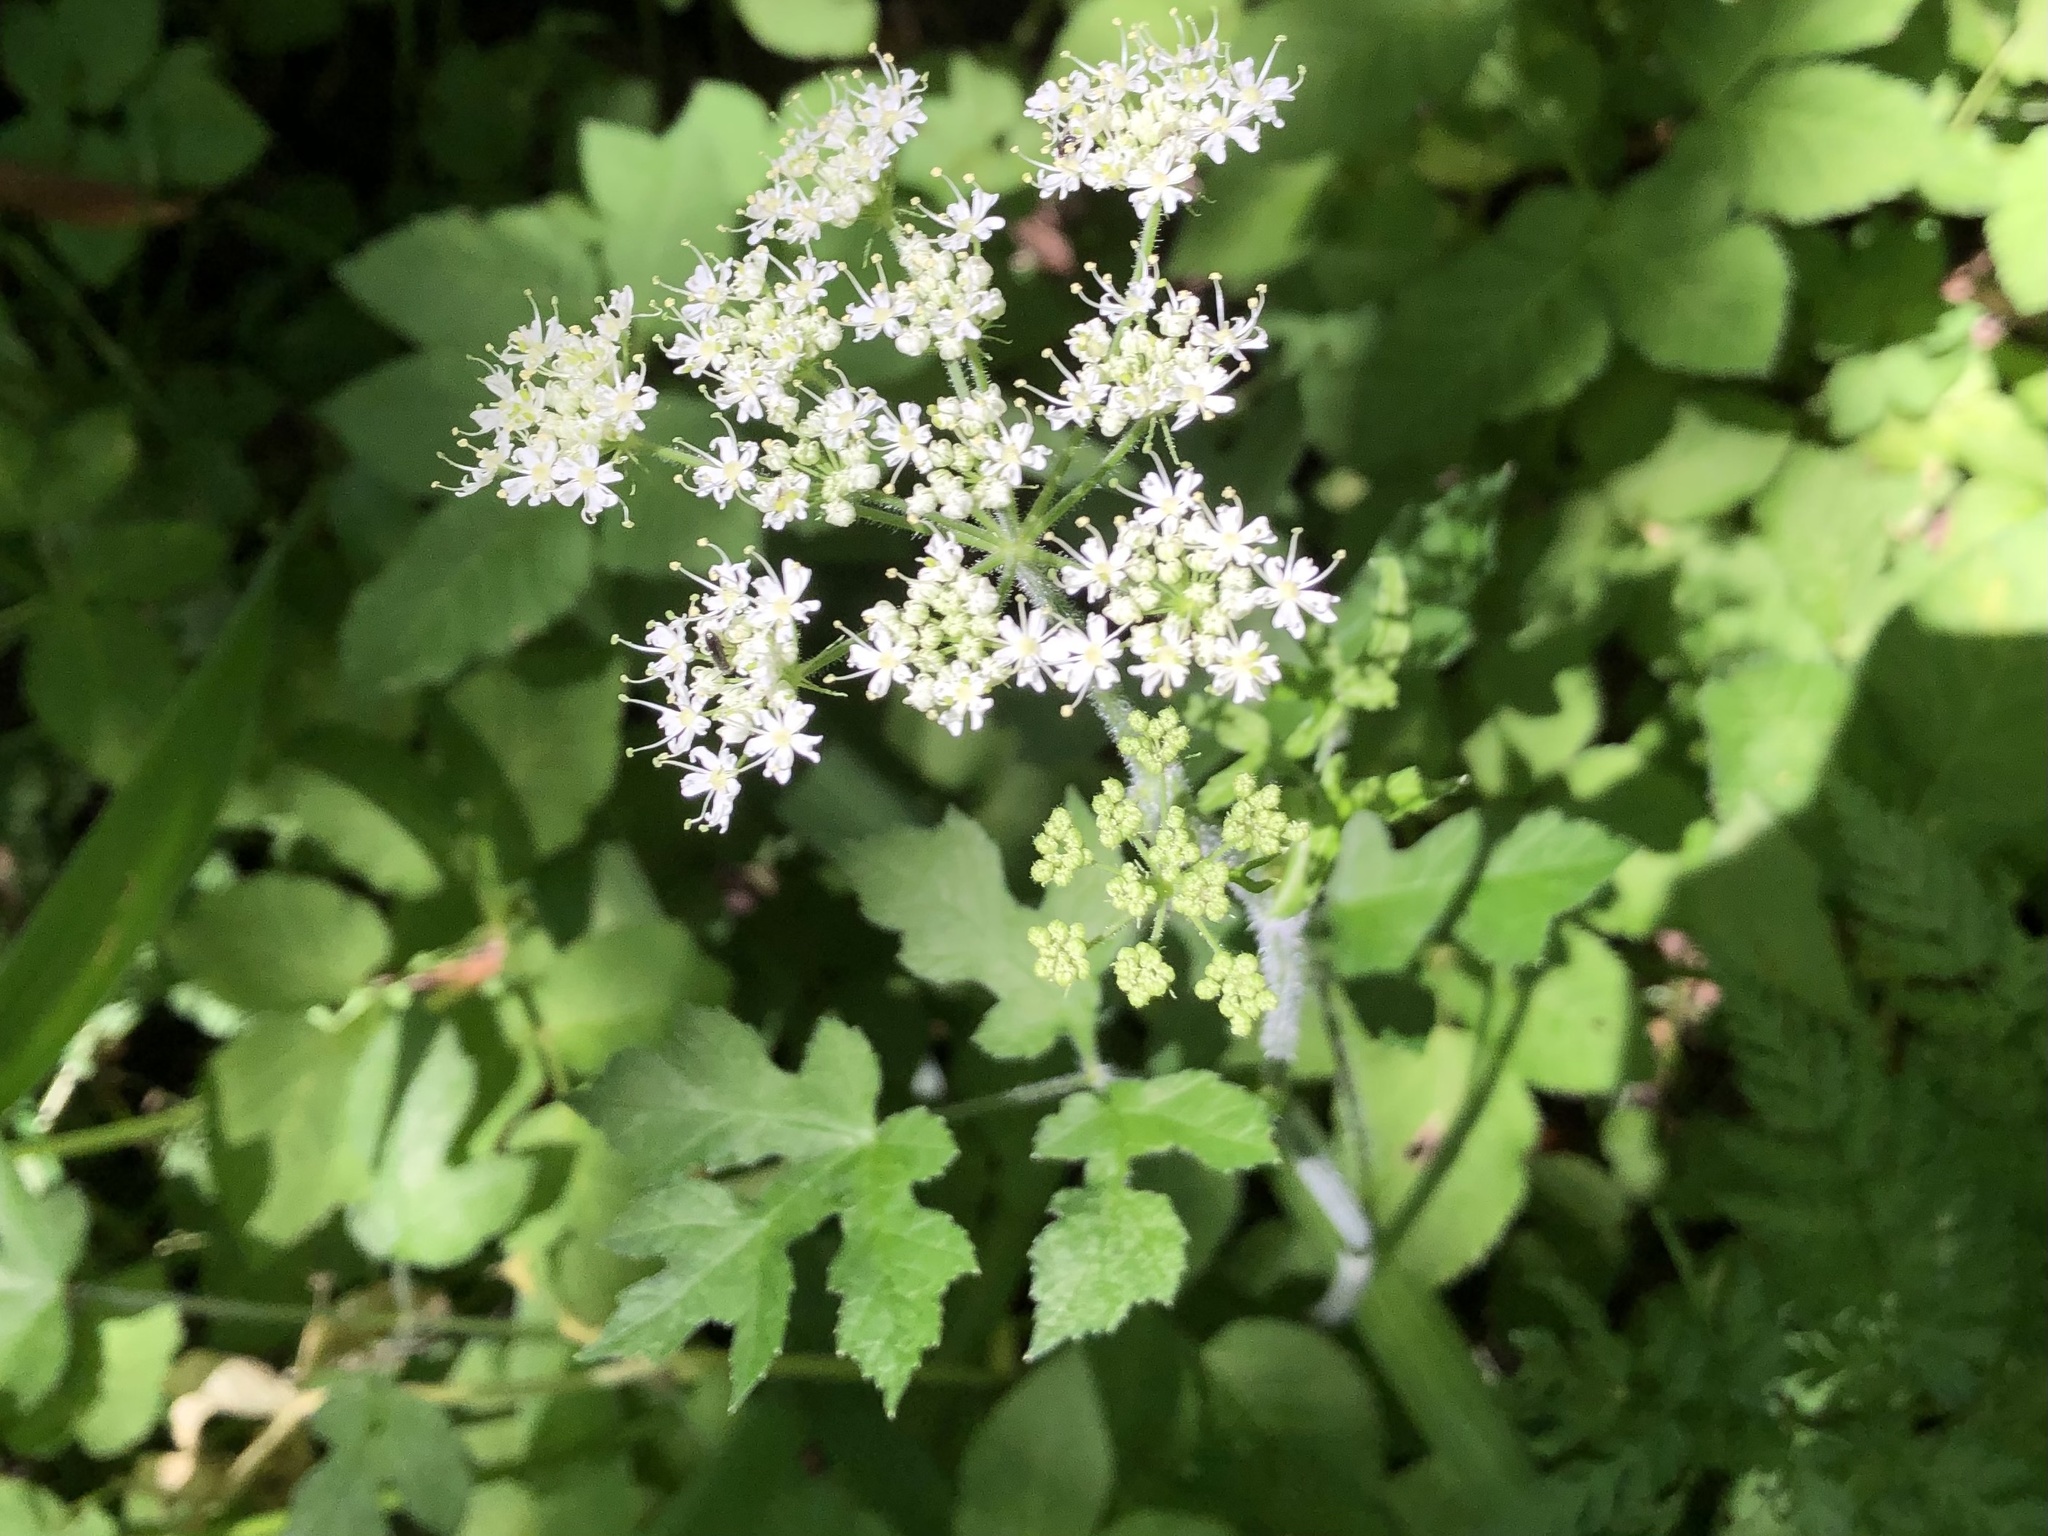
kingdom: Plantae
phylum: Tracheophyta
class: Magnoliopsida
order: Apiales
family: Apiaceae
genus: Heracleum
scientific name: Heracleum sphondylium
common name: Hogweed
